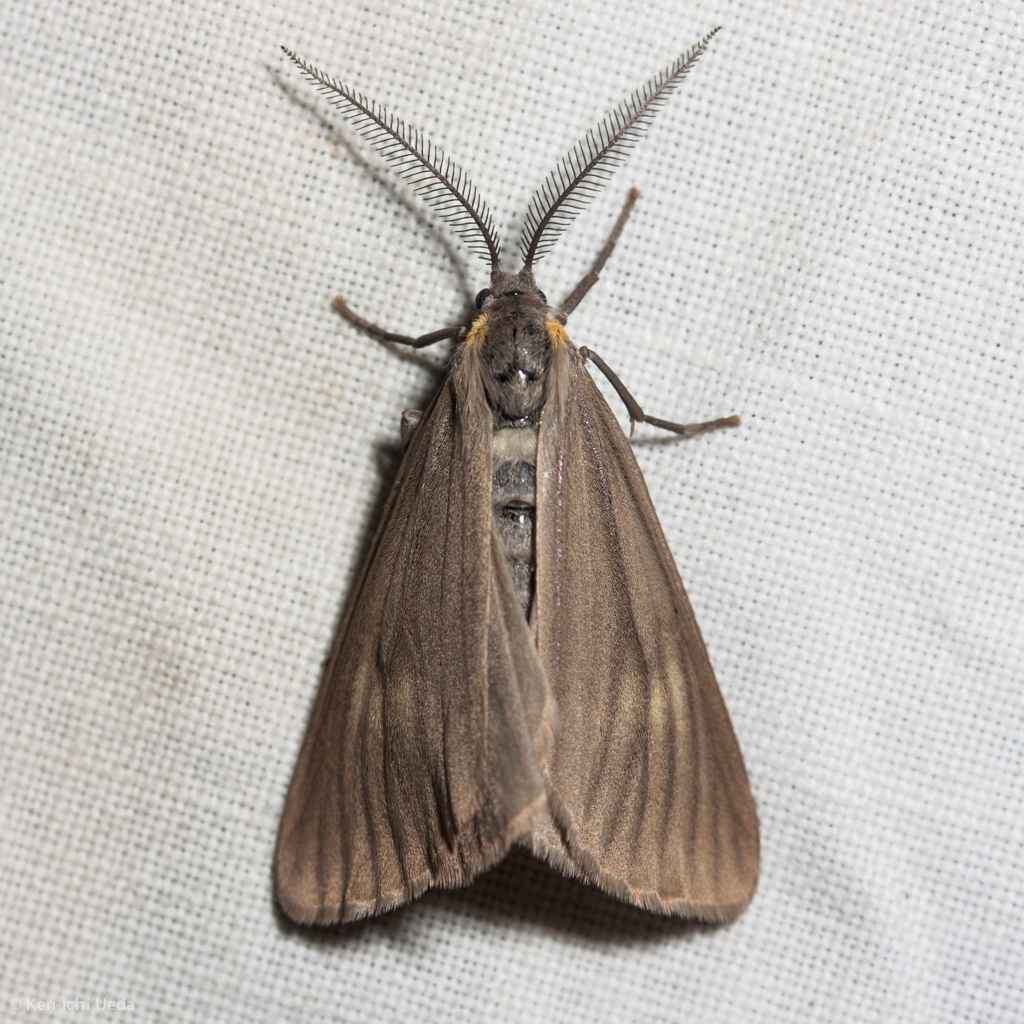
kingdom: Animalia
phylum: Arthropoda
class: Insecta
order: Lepidoptera
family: Notodontidae
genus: Phryganidia
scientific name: Phryganidia californica
